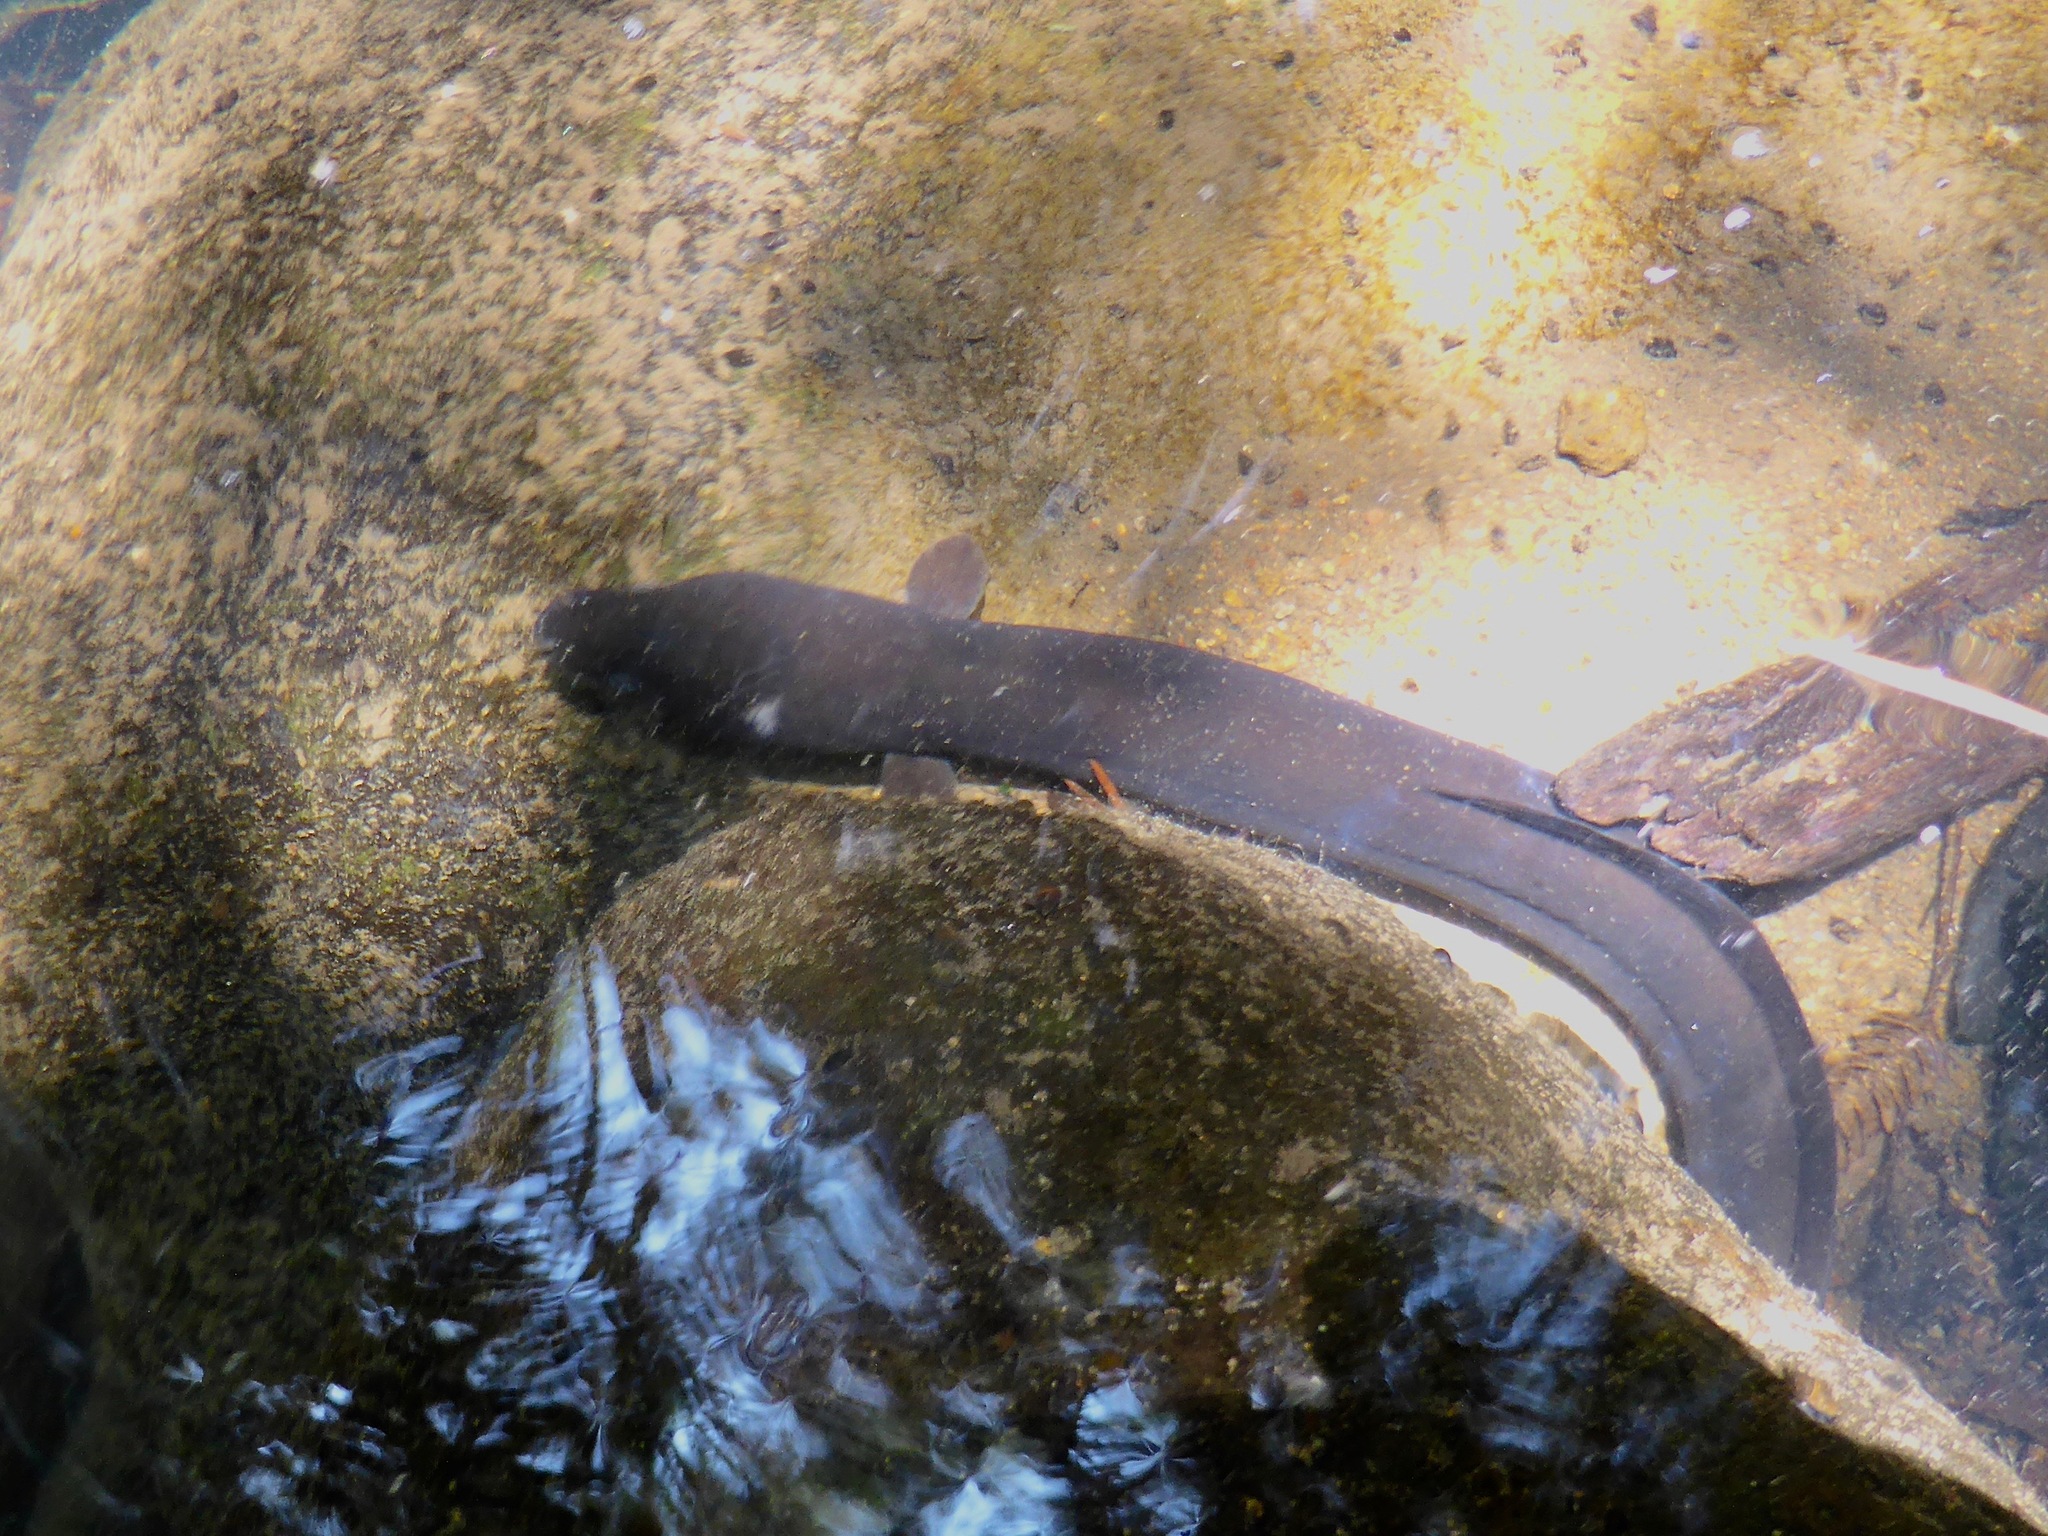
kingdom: Animalia
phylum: Chordata
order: Anguilliformes
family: Anguillidae
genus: Anguilla
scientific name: Anguilla dieffenbachii
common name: New zealand longfin eel
